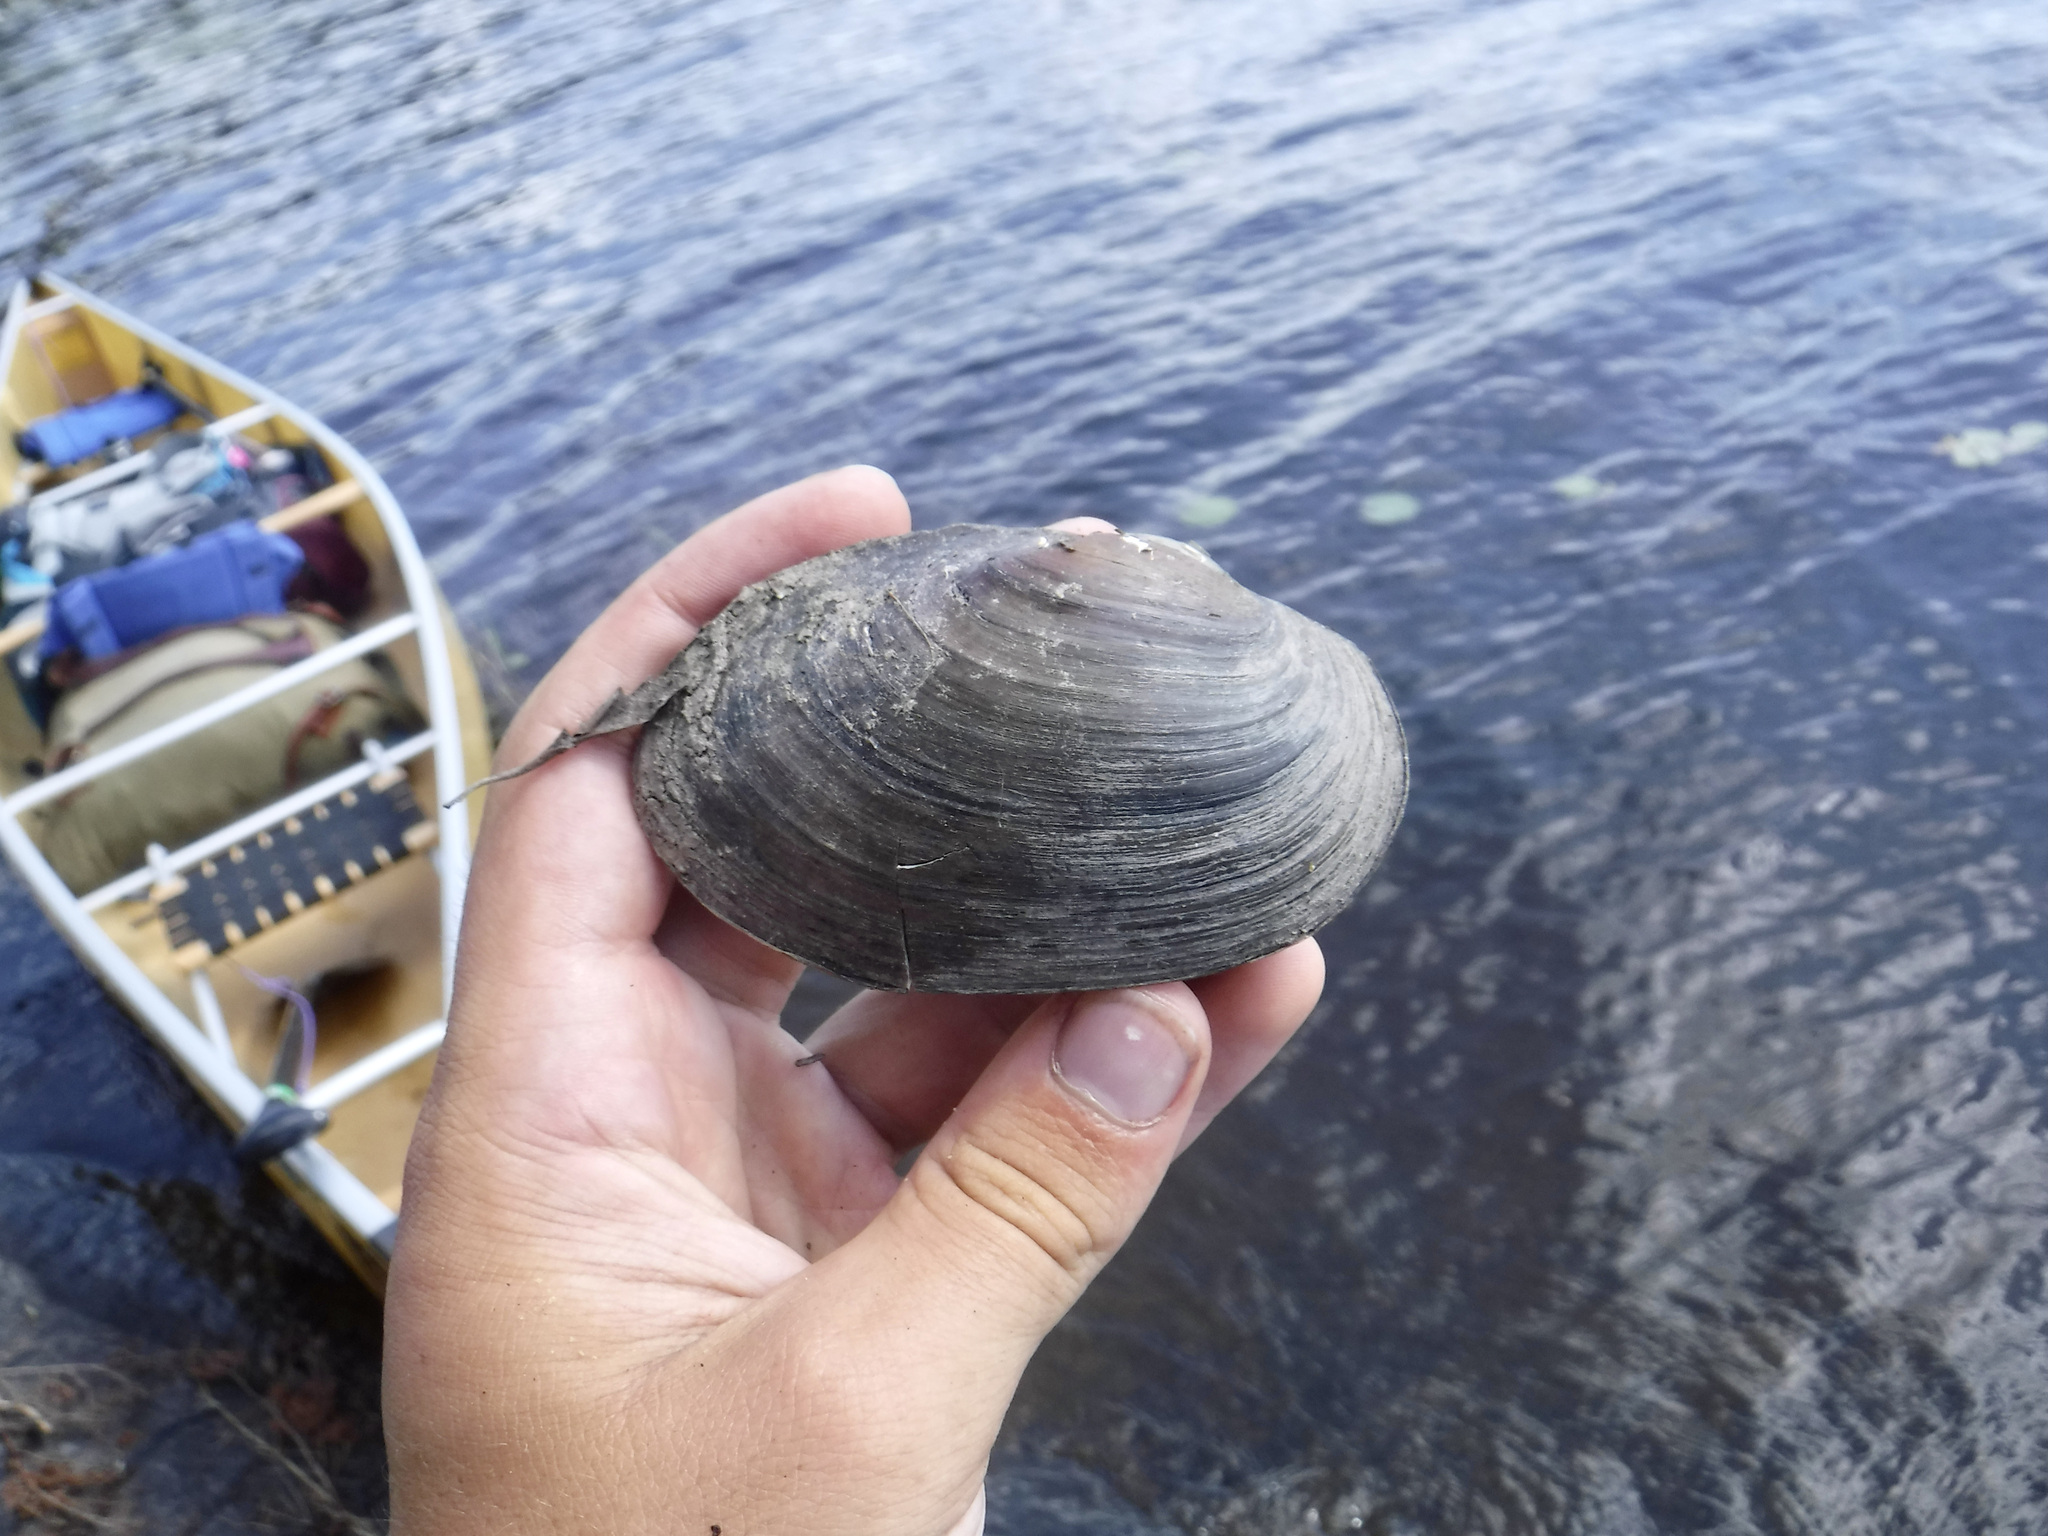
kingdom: Animalia
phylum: Mollusca
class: Bivalvia
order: Unionida
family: Unionidae
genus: Pyganodon
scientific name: Pyganodon grandis
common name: Giant floater
